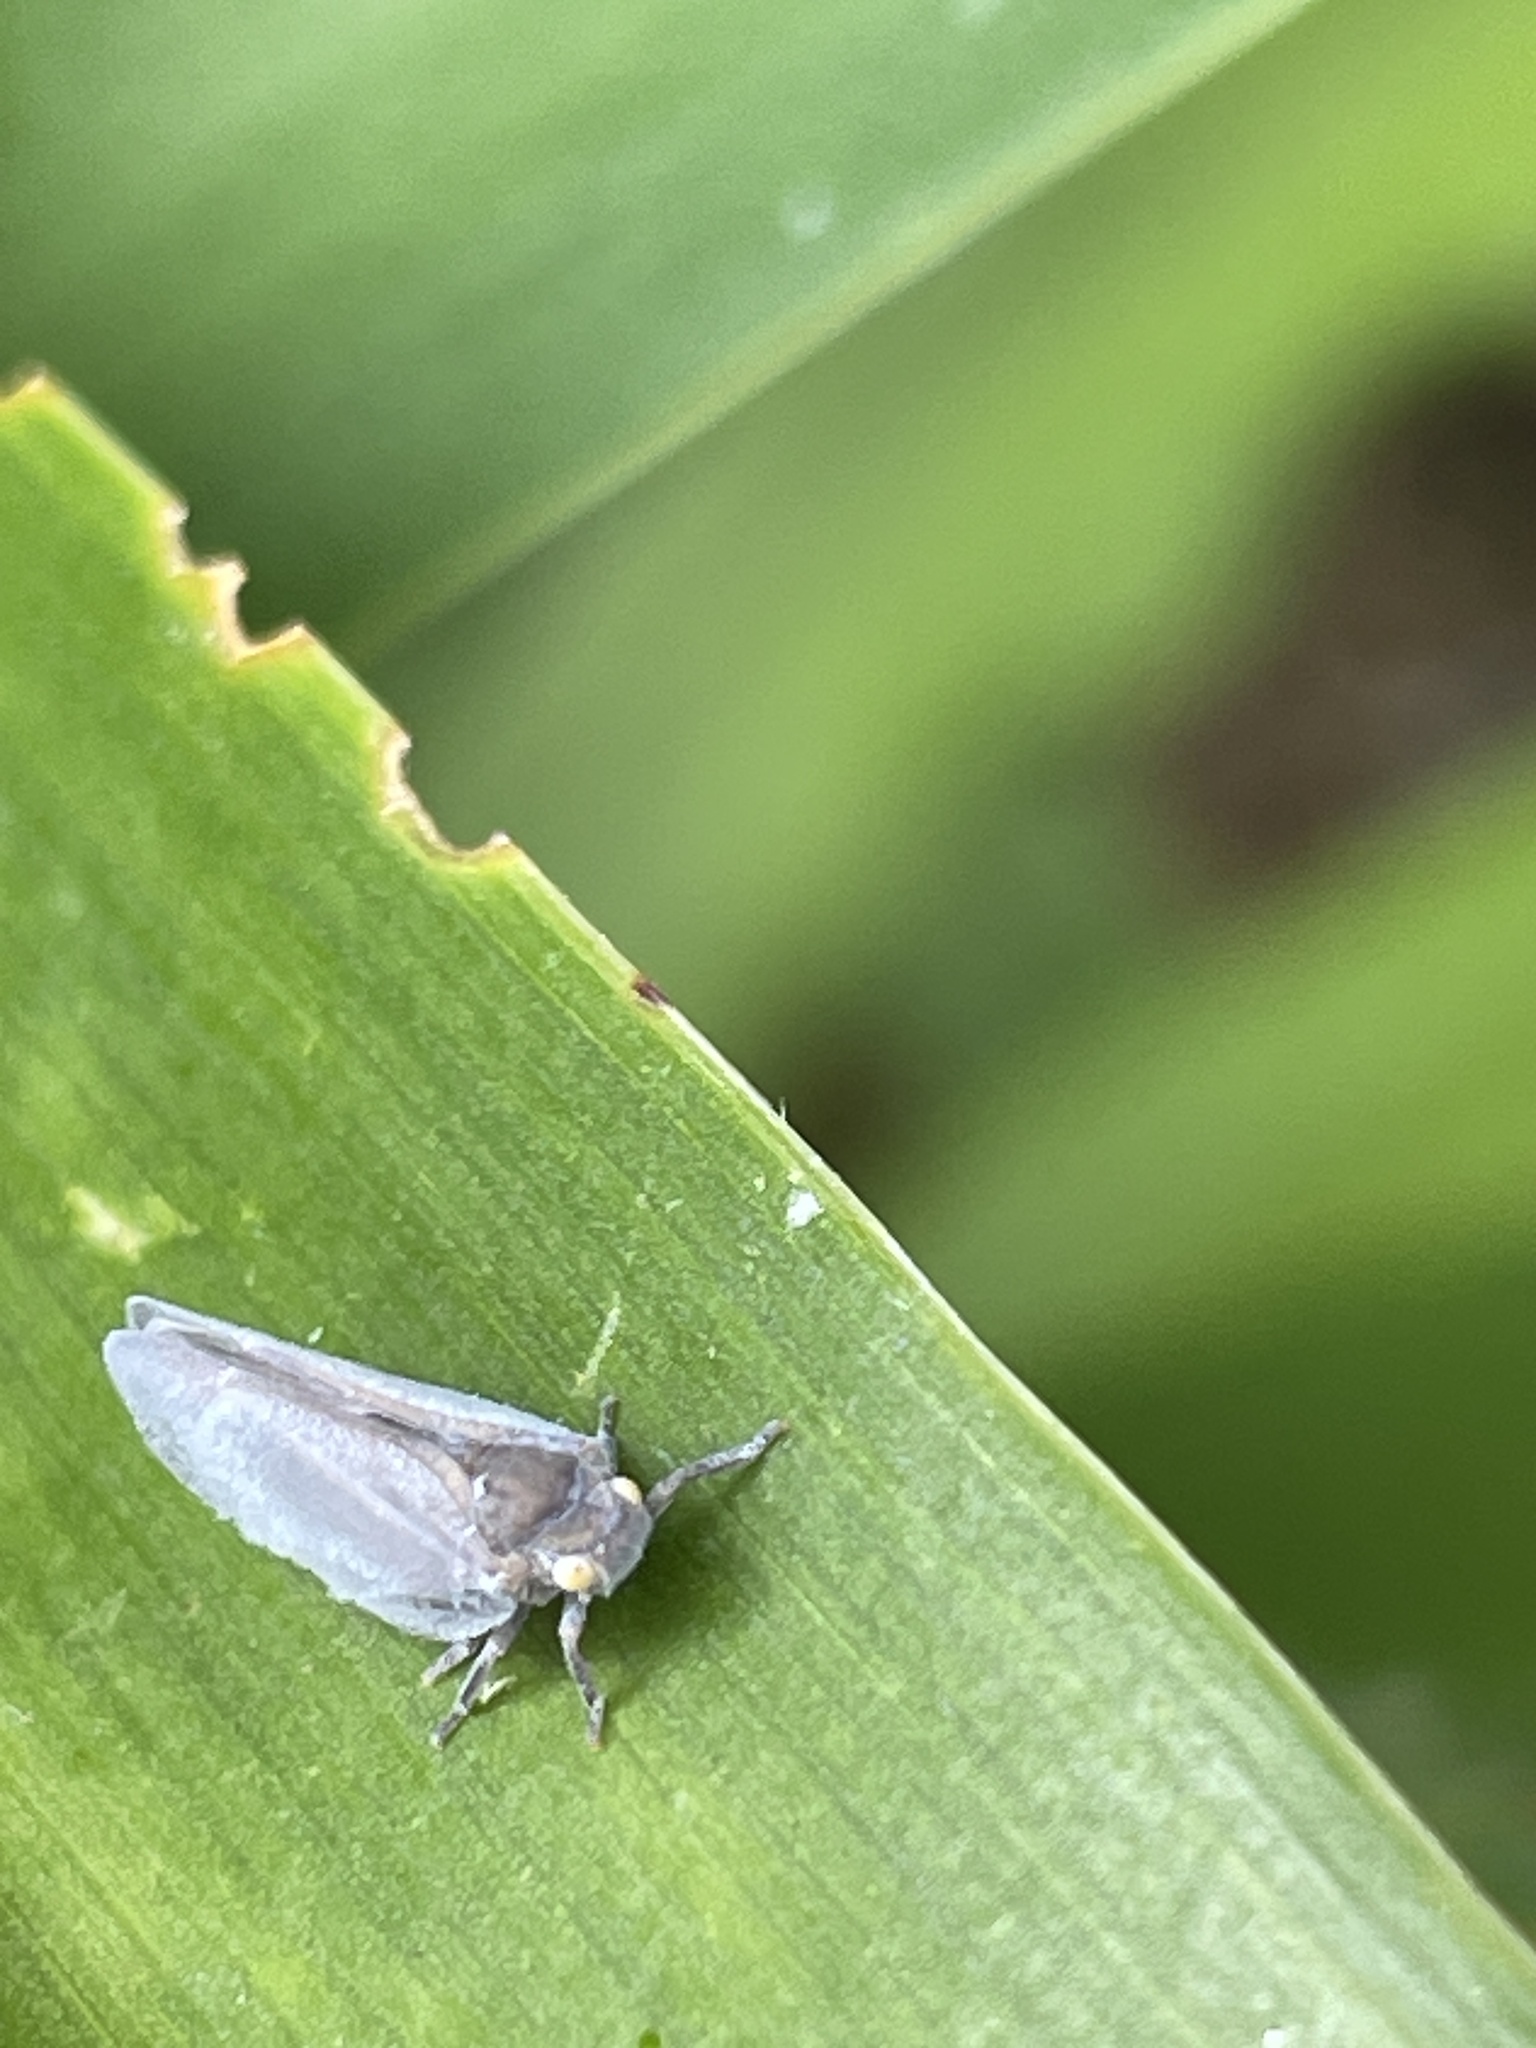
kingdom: Animalia
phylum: Arthropoda
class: Insecta
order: Hemiptera
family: Flatidae
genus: Anzora
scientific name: Anzora unicolor
